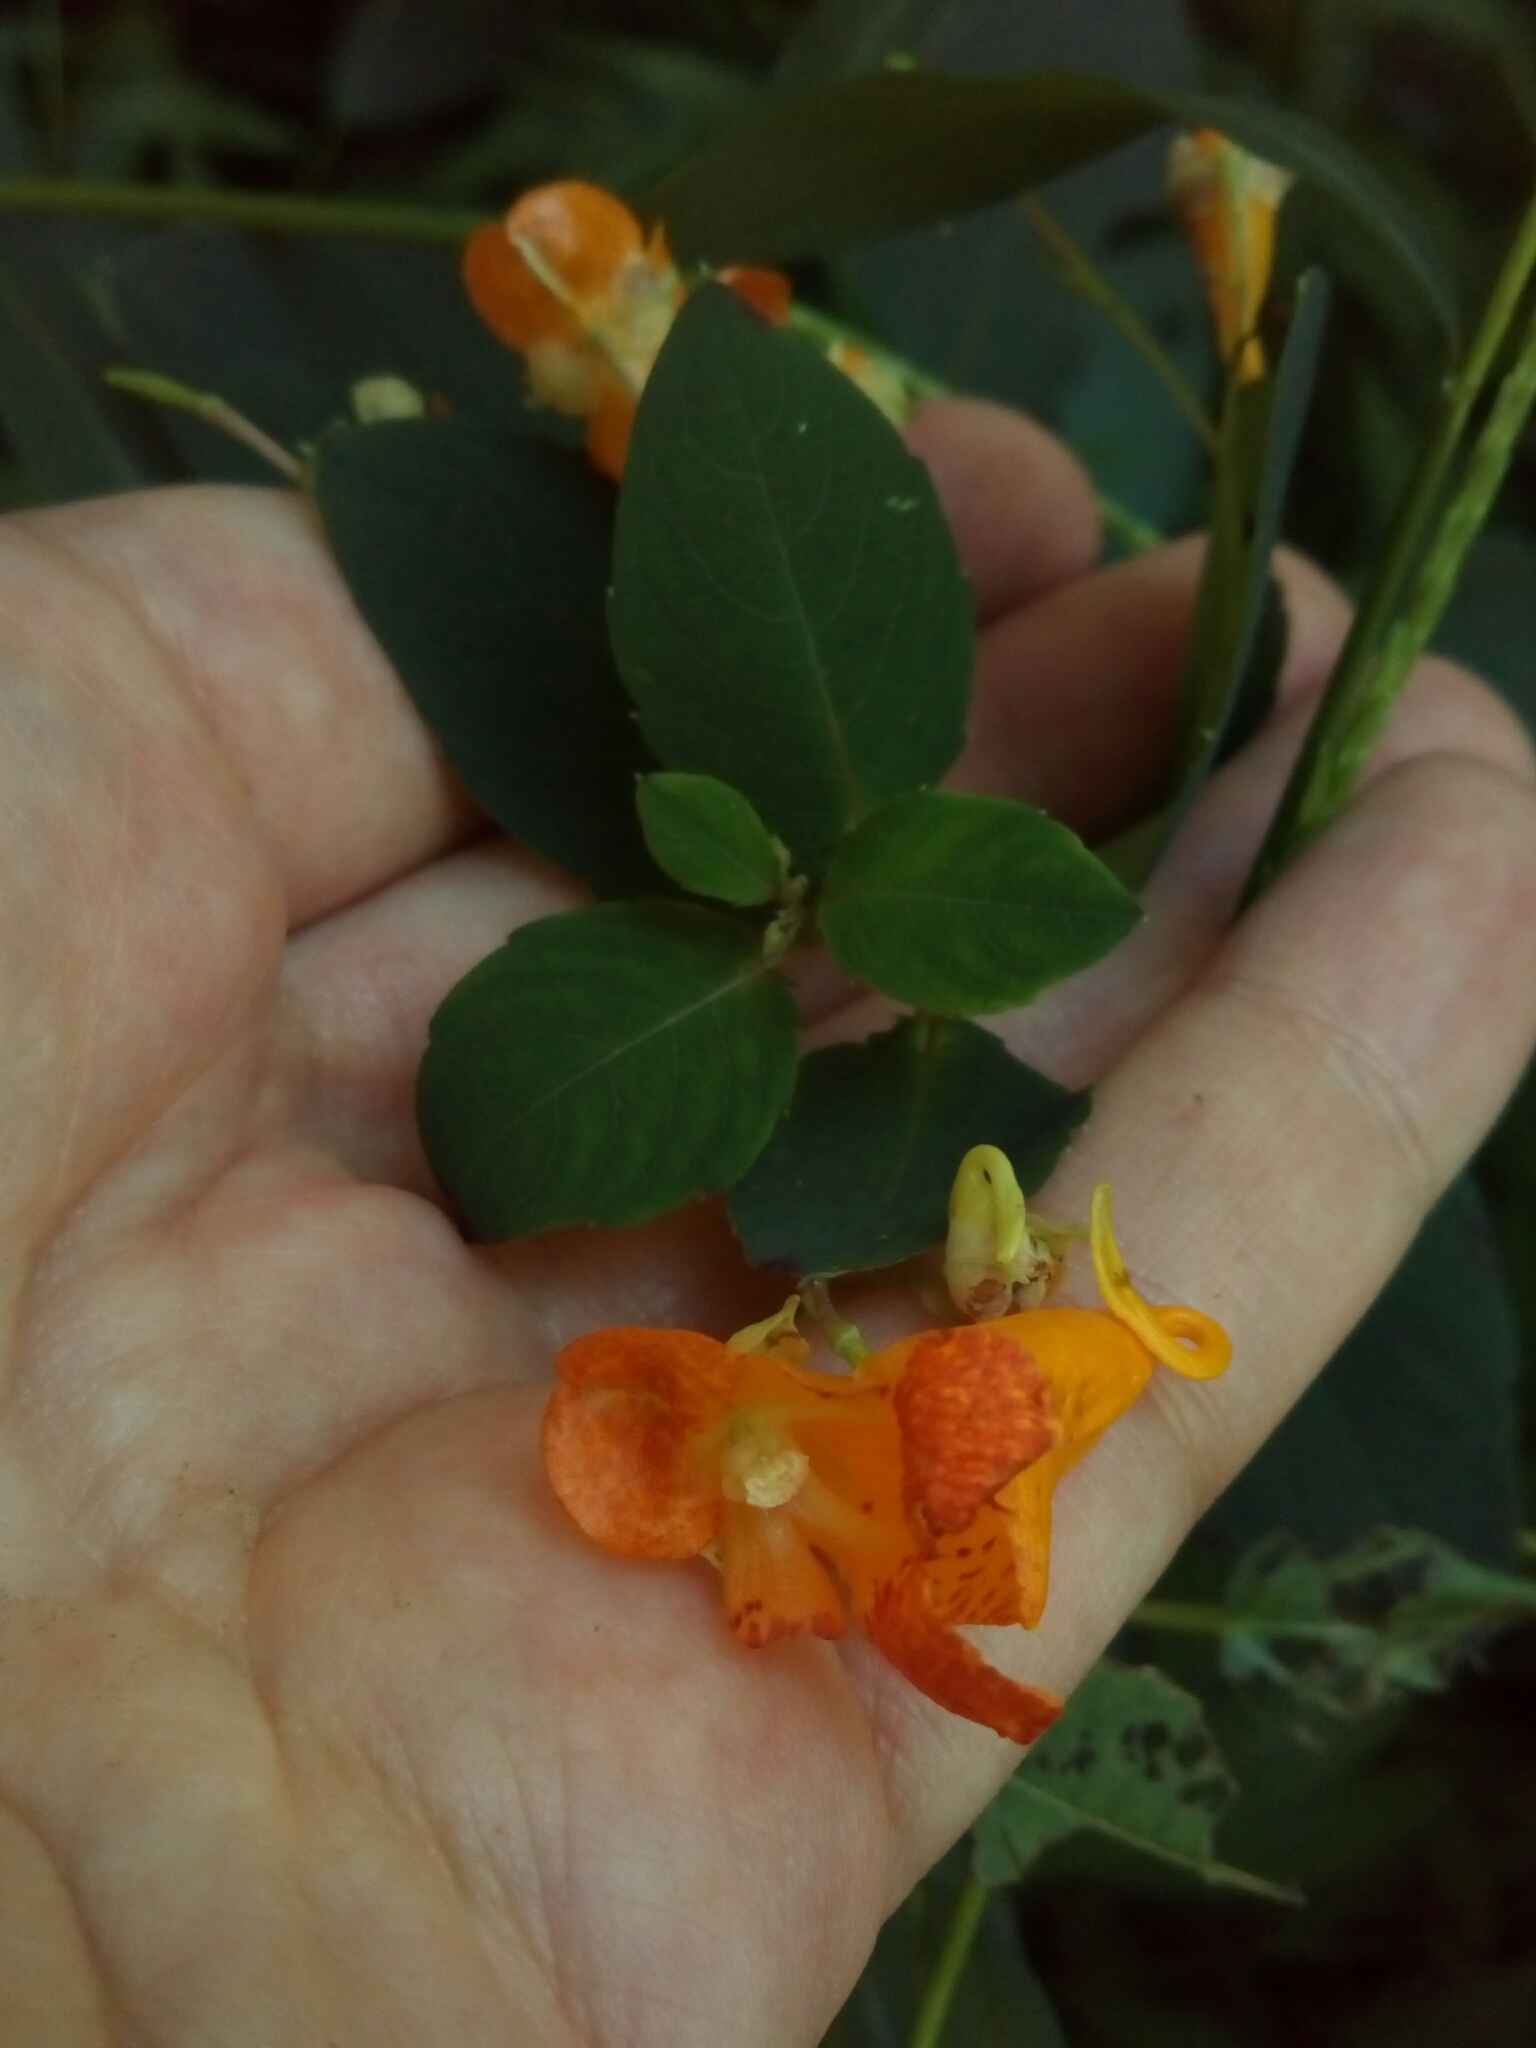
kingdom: Plantae
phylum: Tracheophyta
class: Magnoliopsida
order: Ericales
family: Balsaminaceae
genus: Impatiens
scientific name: Impatiens capensis
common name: Orange balsam
